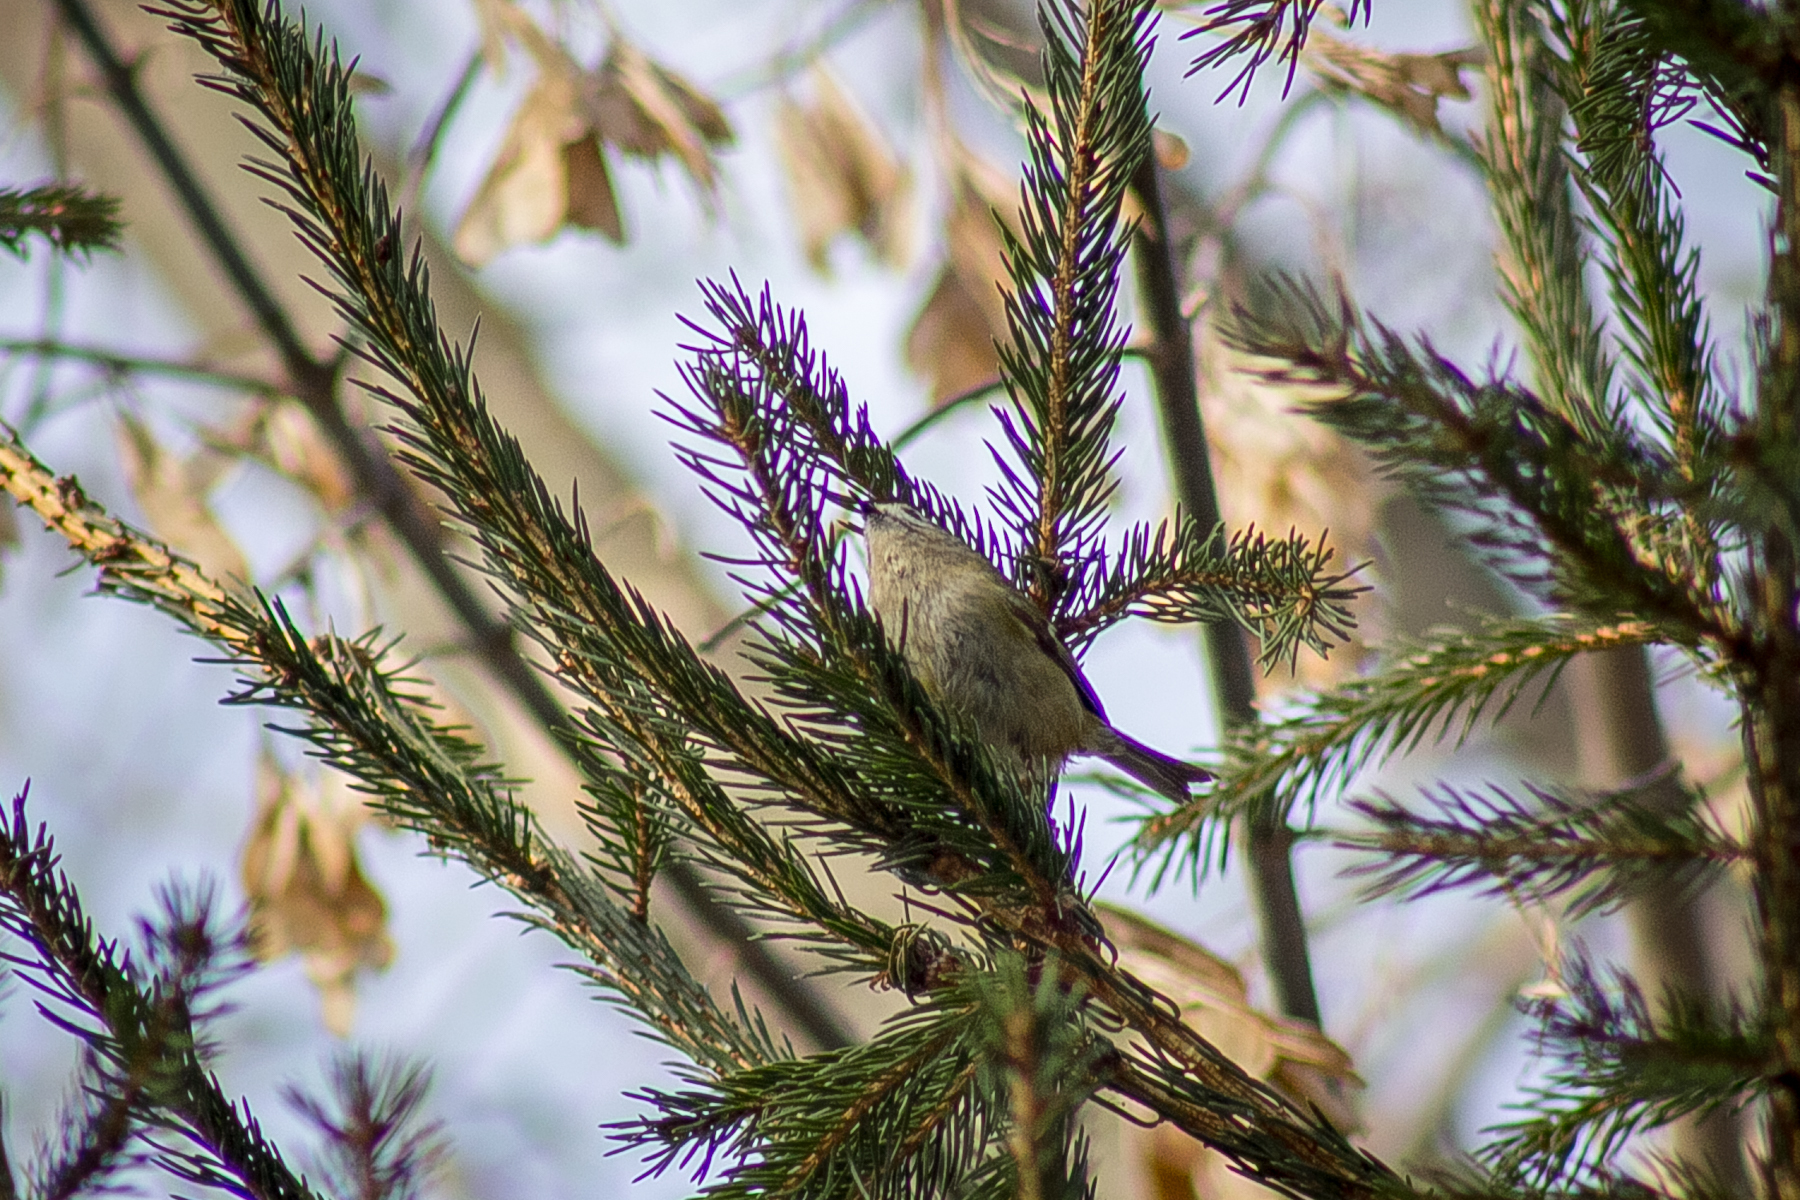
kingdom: Animalia
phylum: Chordata
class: Aves
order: Passeriformes
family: Regulidae
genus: Regulus
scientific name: Regulus regulus
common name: Goldcrest
